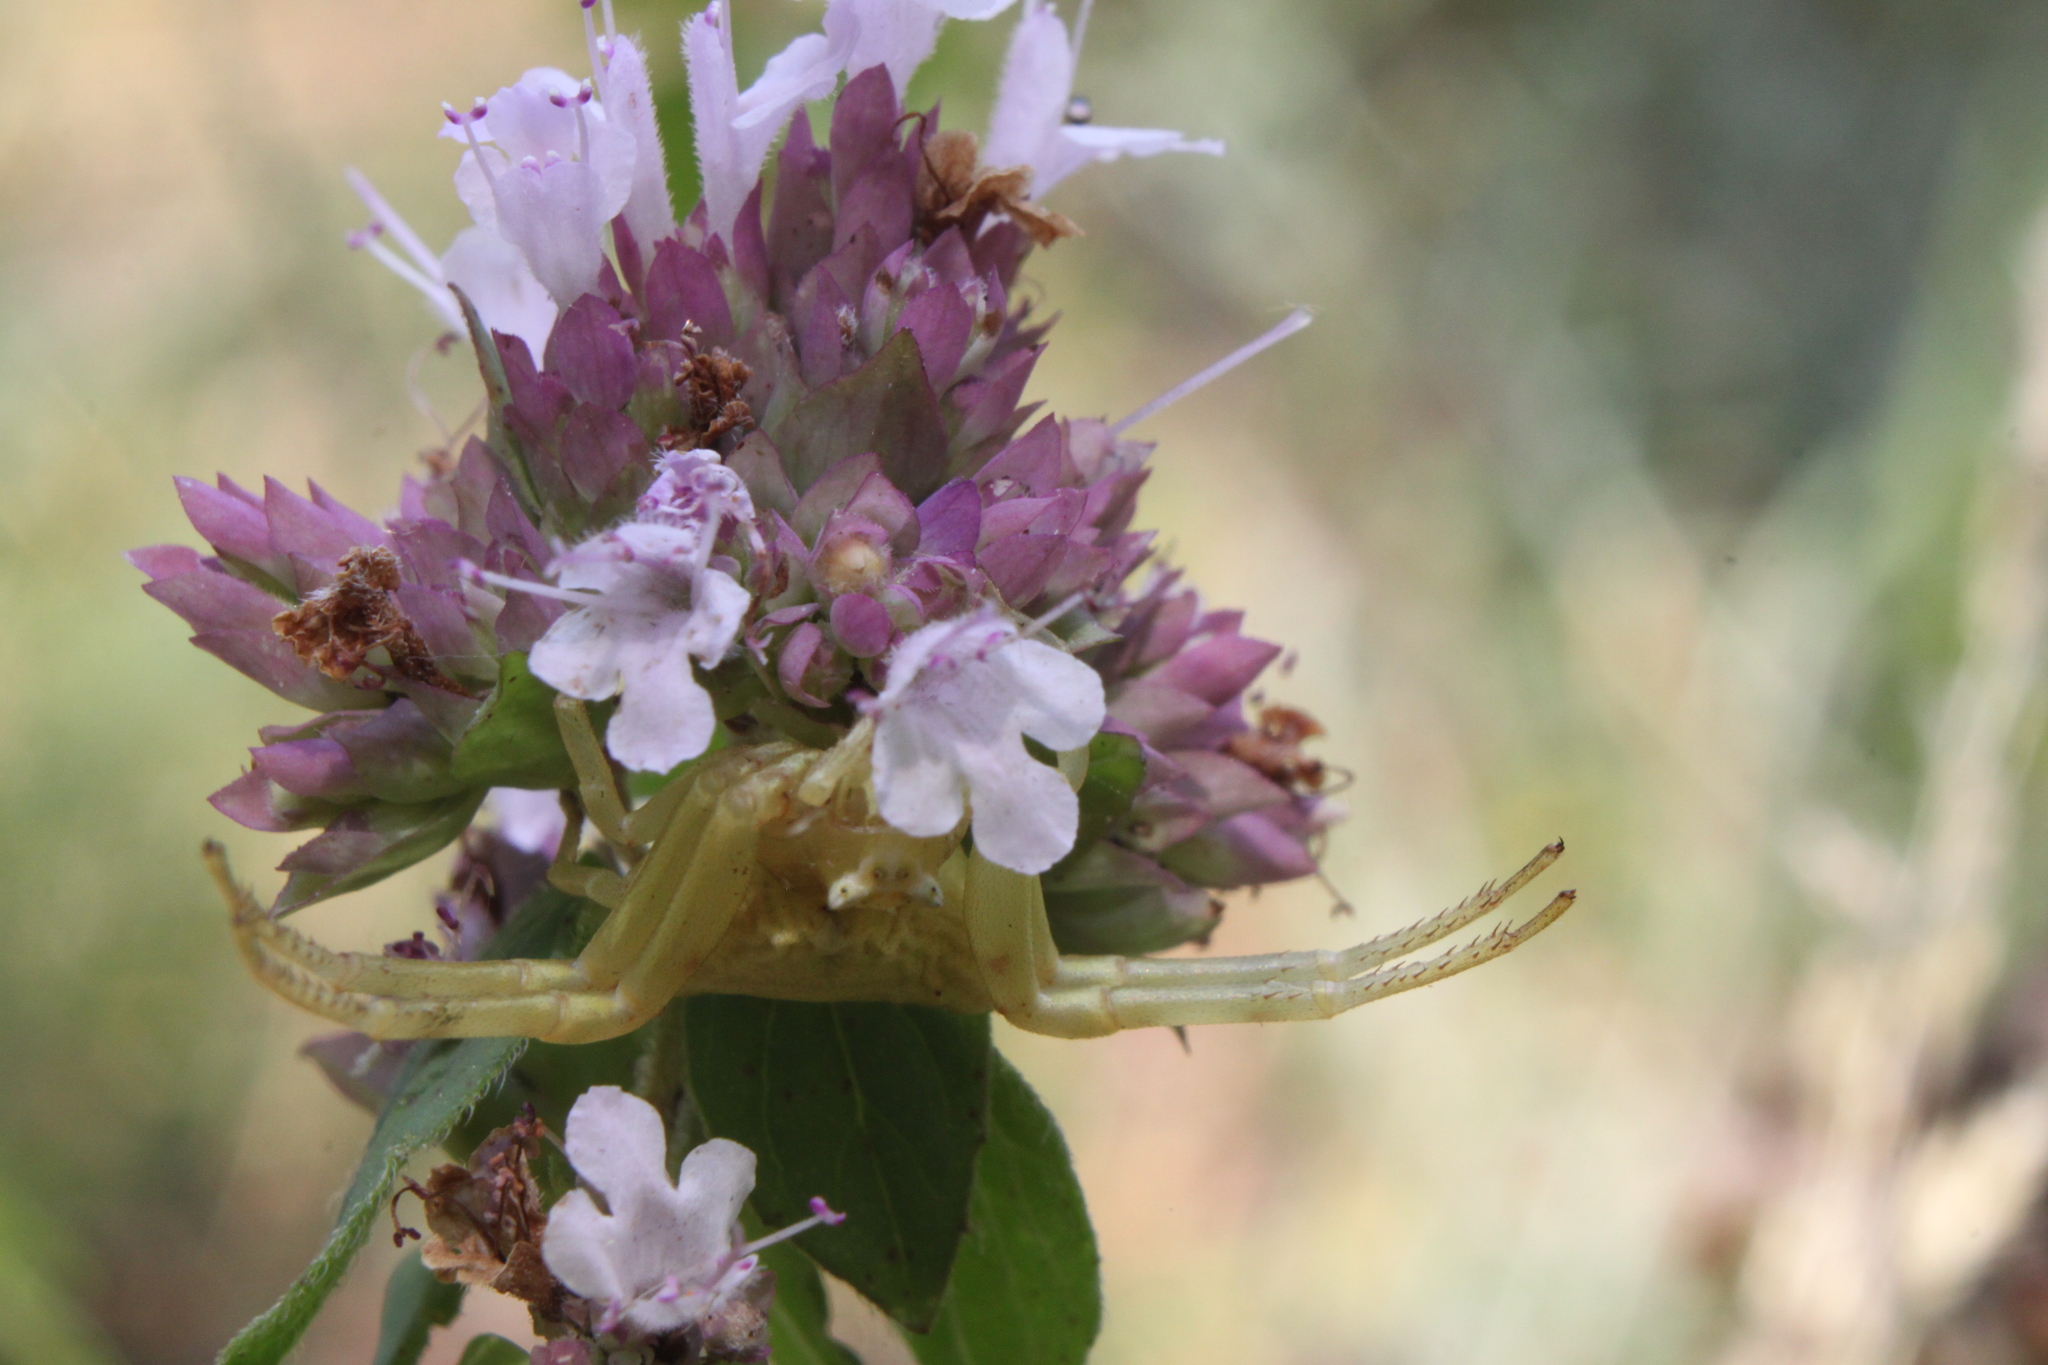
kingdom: Animalia
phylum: Arthropoda
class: Arachnida
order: Araneae
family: Thomisidae
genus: Thomisus
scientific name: Thomisus onustus
